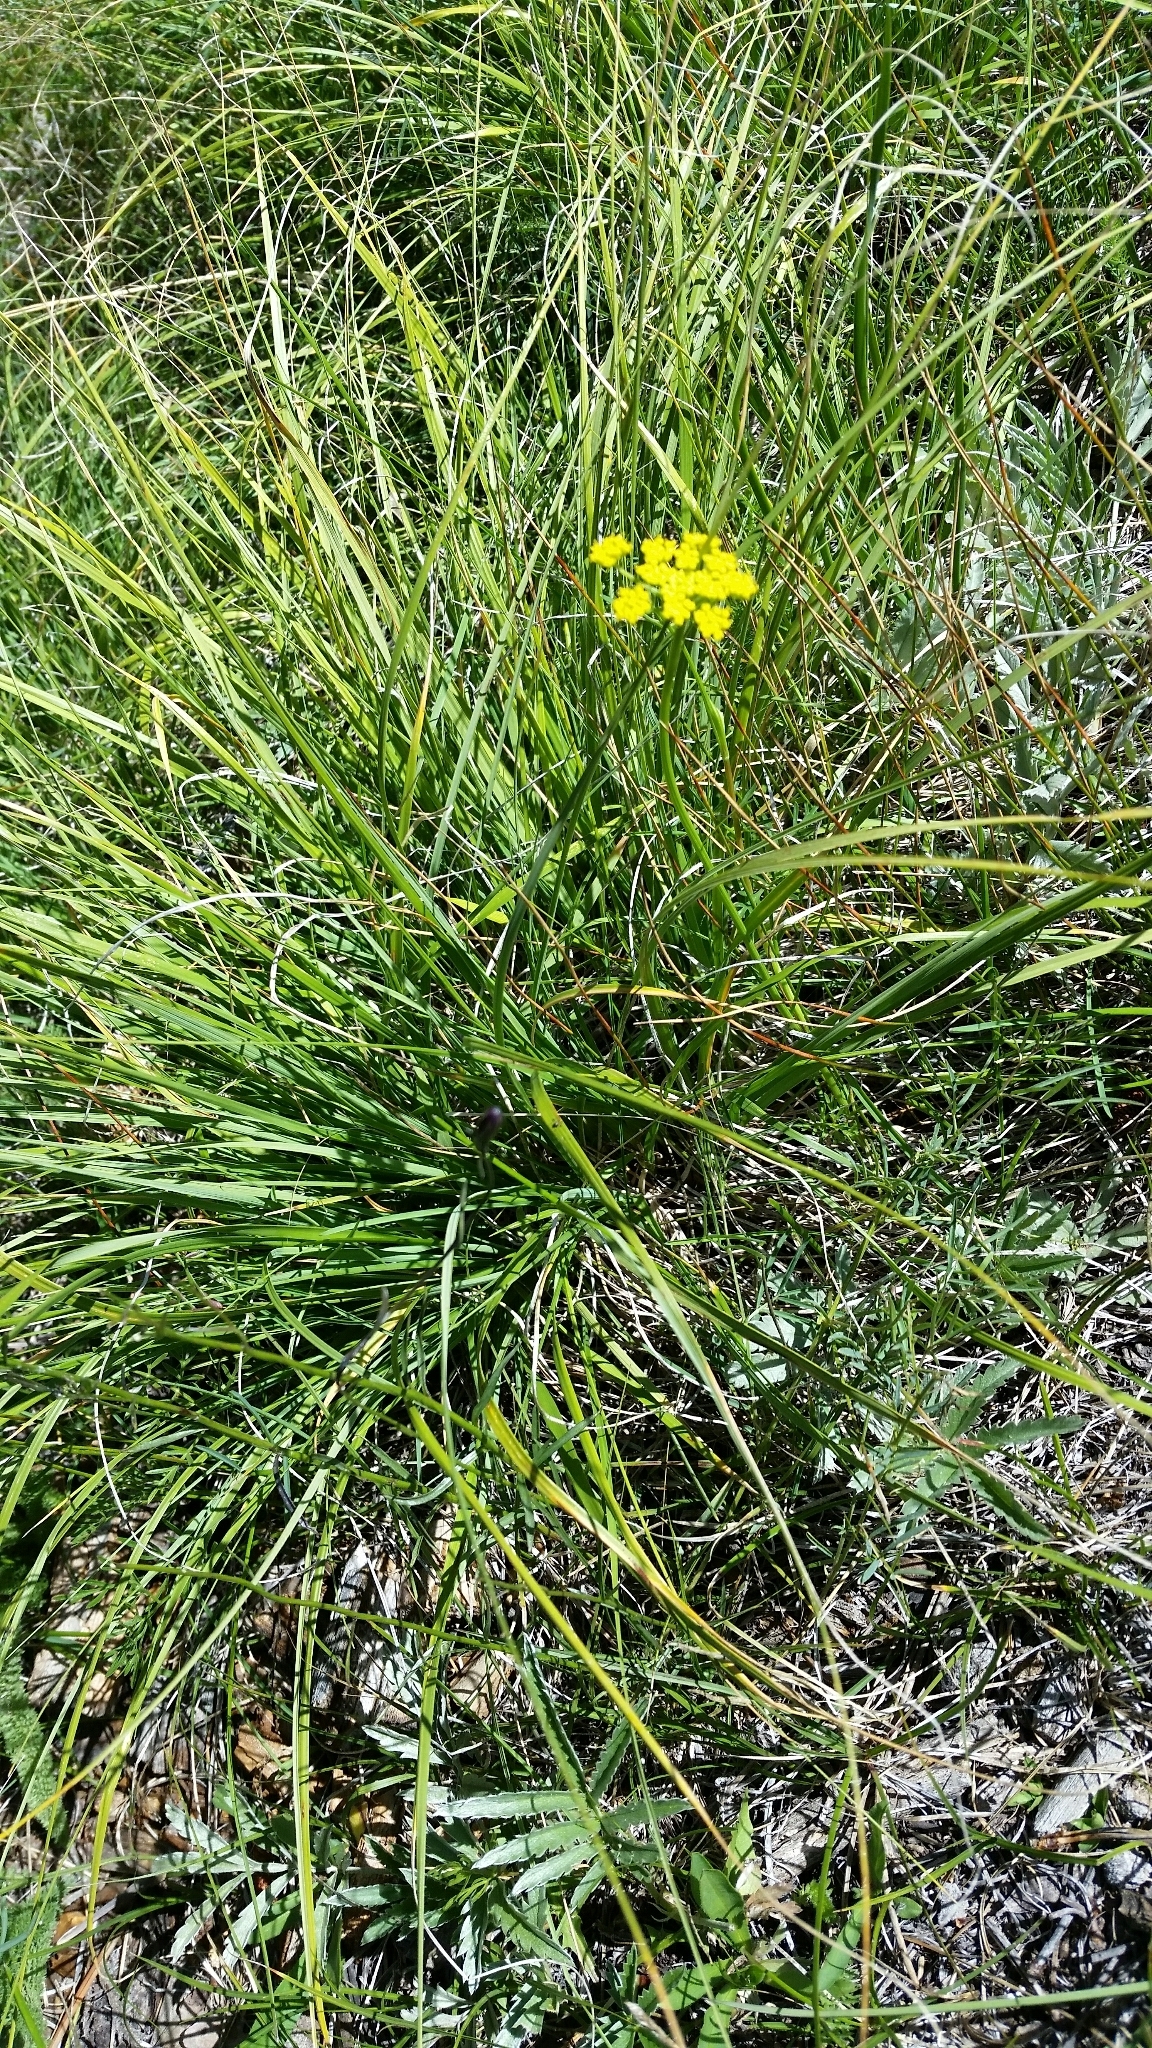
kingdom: Plantae
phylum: Tracheophyta
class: Magnoliopsida
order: Apiales
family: Apiaceae
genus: Cymopterus
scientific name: Cymopterus lemmonii
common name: Lemmon's spring-parsley
